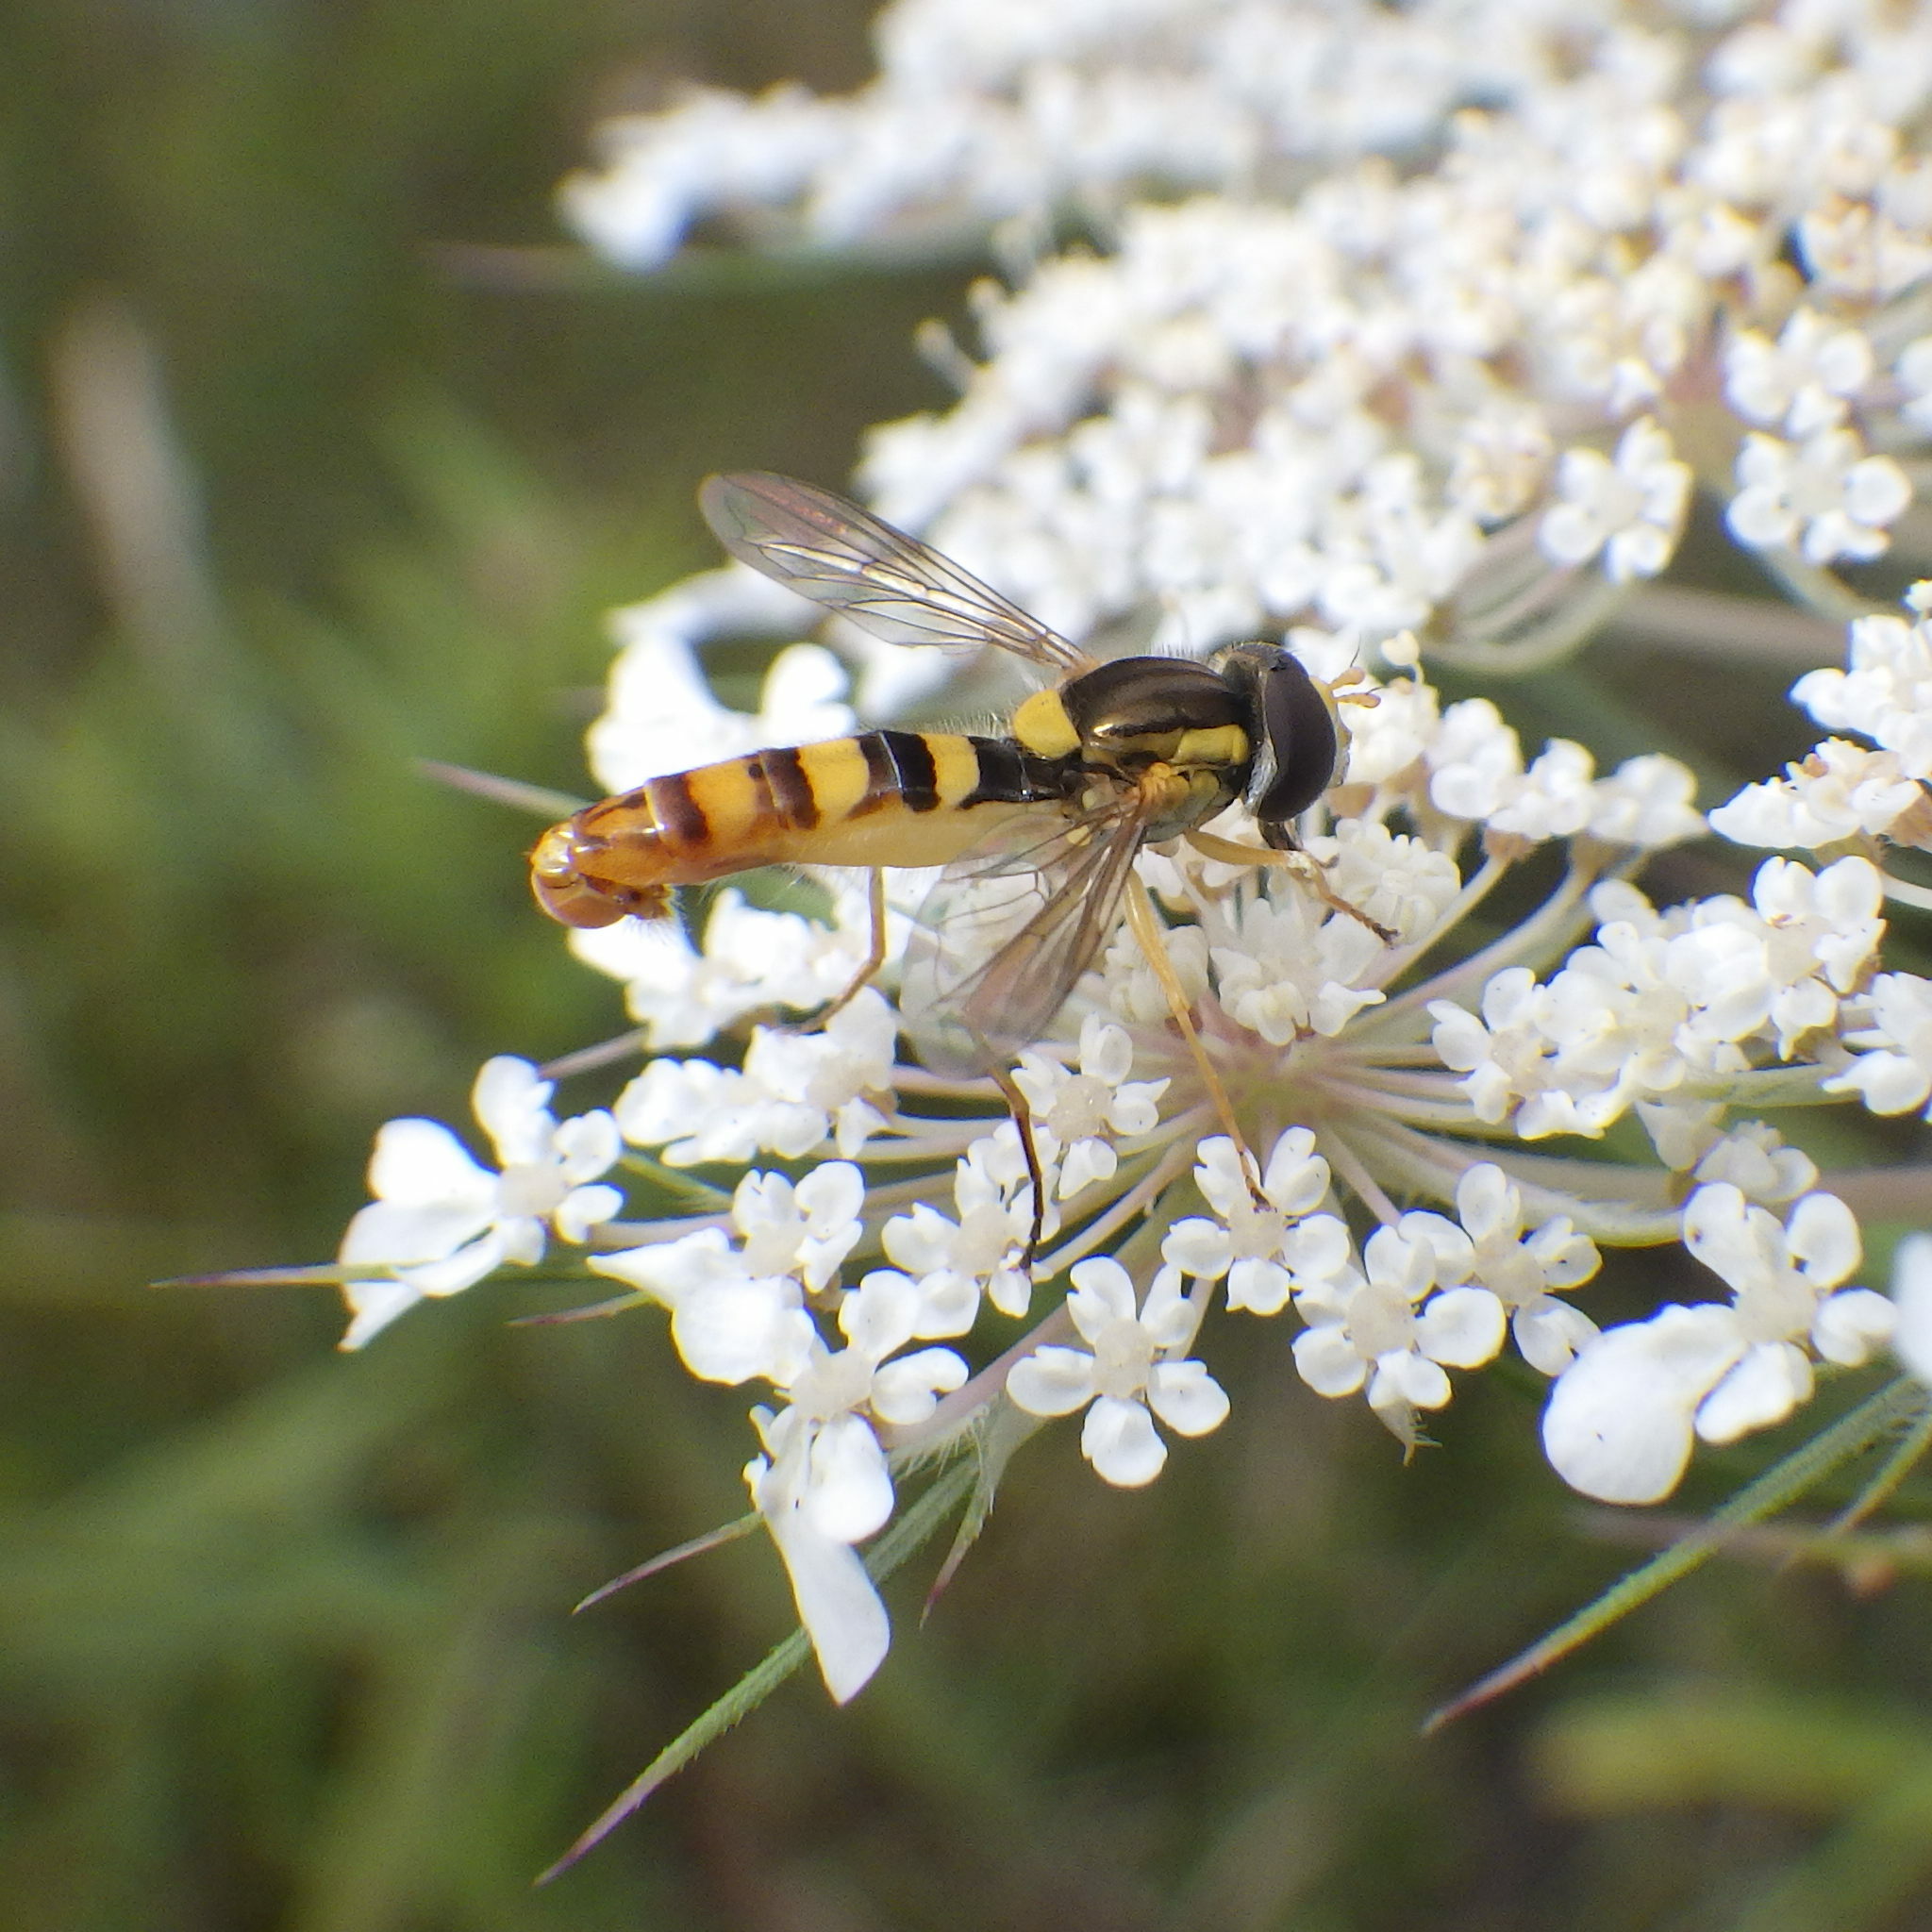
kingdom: Animalia
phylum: Arthropoda
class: Insecta
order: Diptera
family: Syrphidae
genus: Sphaerophoria
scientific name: Sphaerophoria philantha
